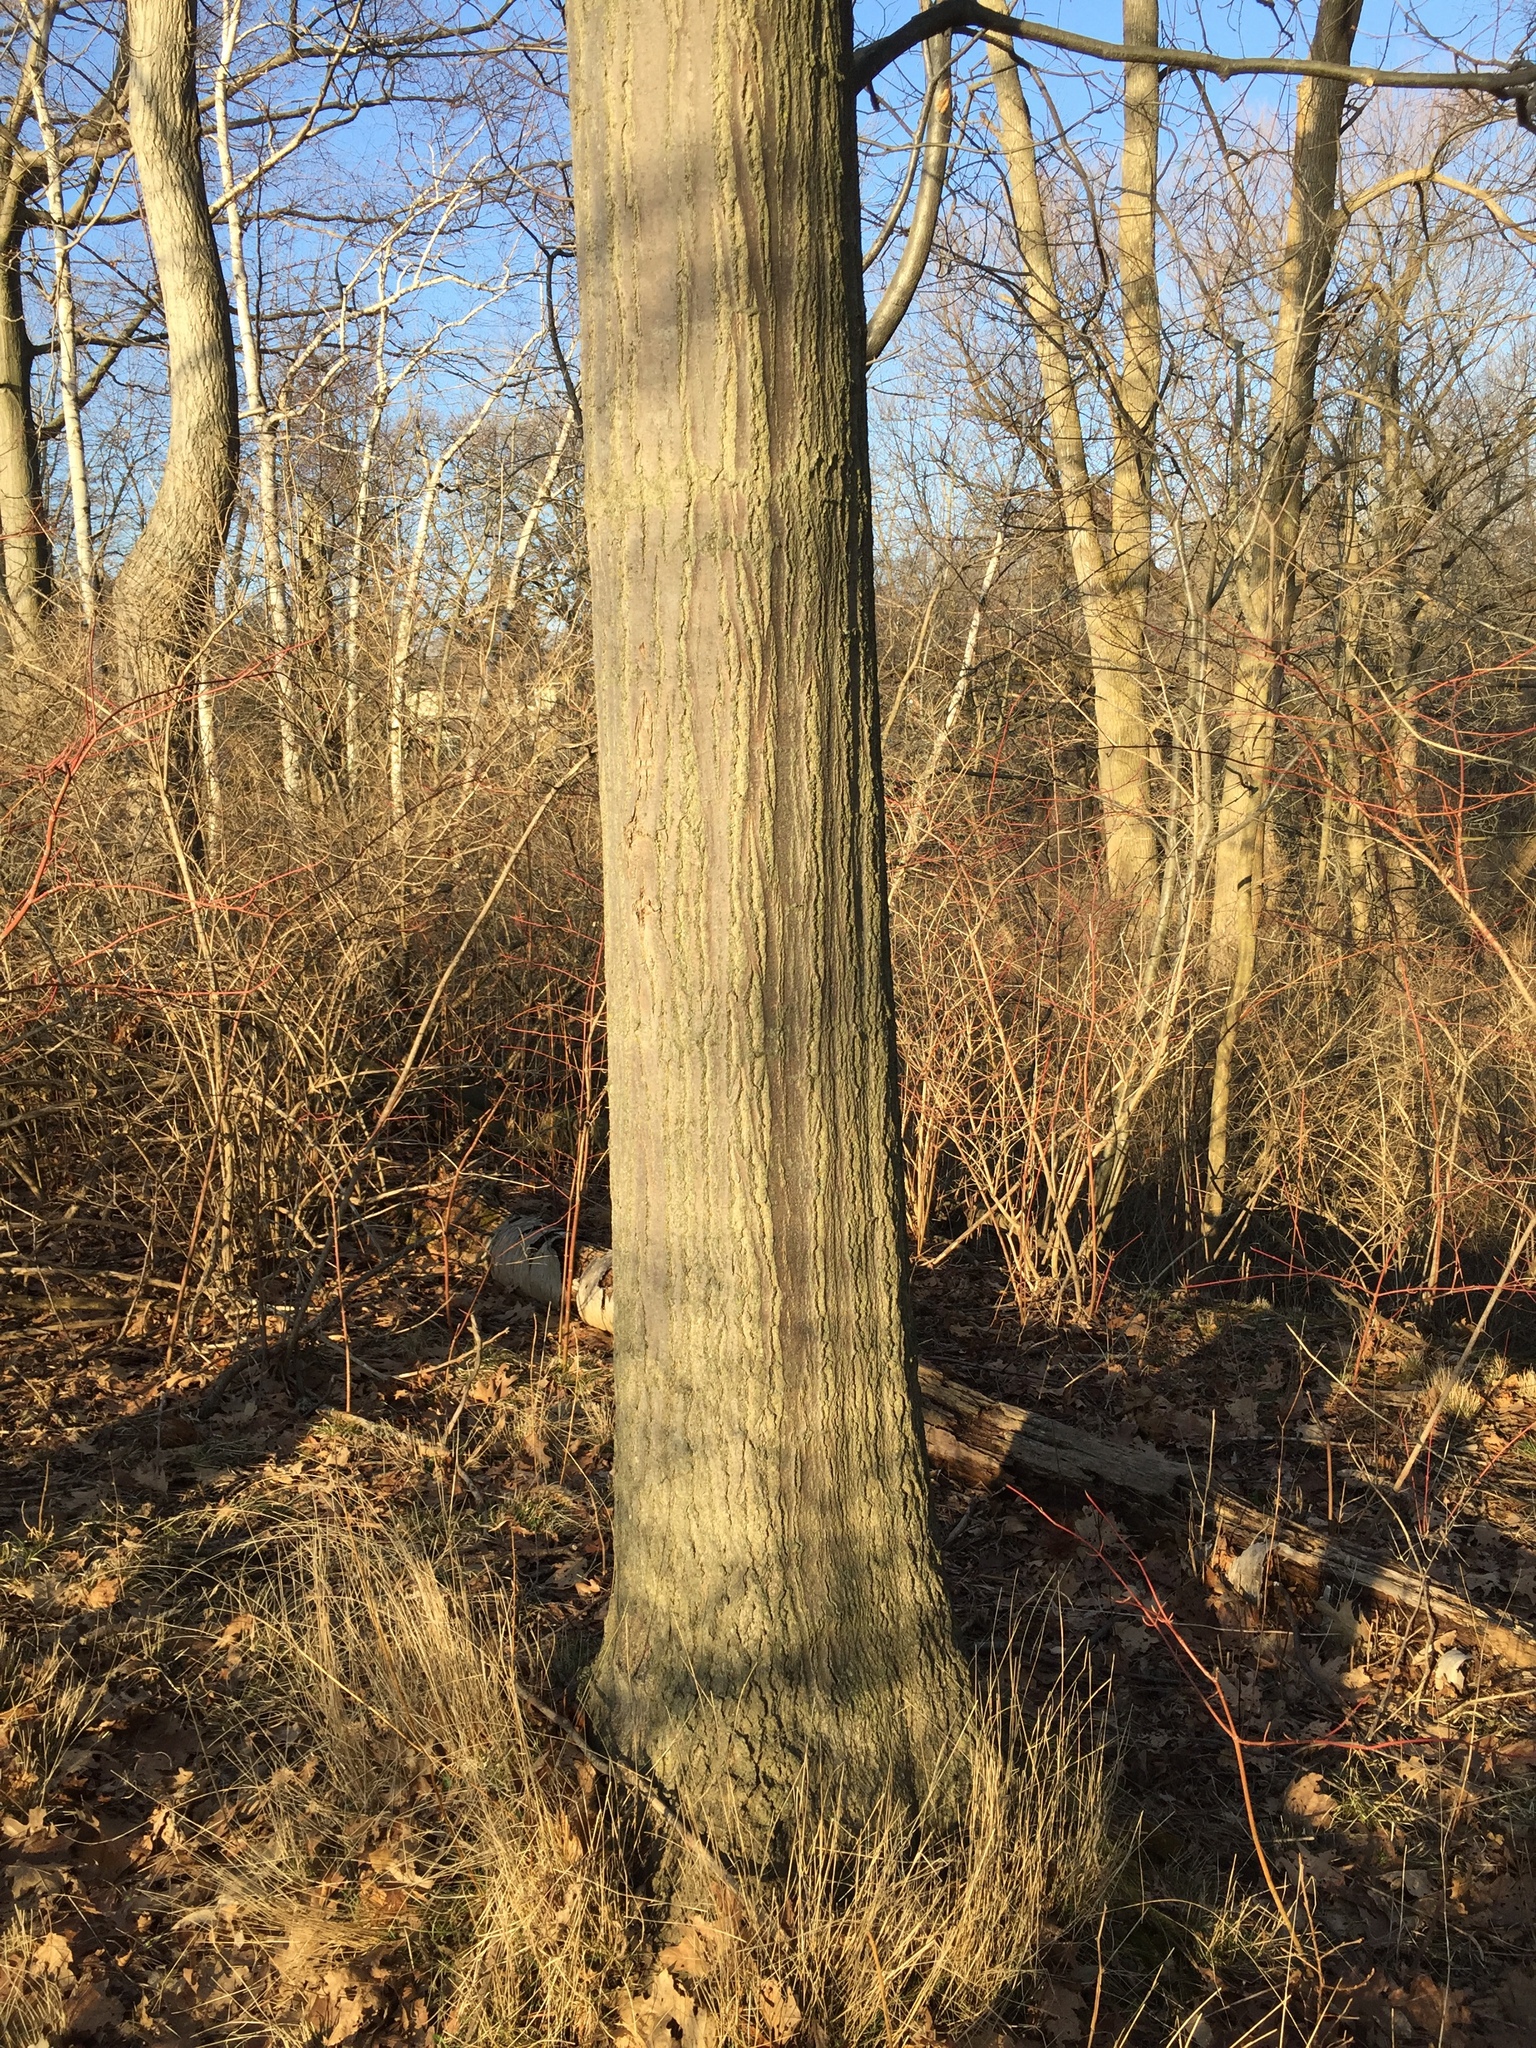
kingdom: Plantae
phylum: Tracheophyta
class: Magnoliopsida
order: Fagales
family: Fagaceae
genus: Quercus
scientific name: Quercus rubra
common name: Red oak
